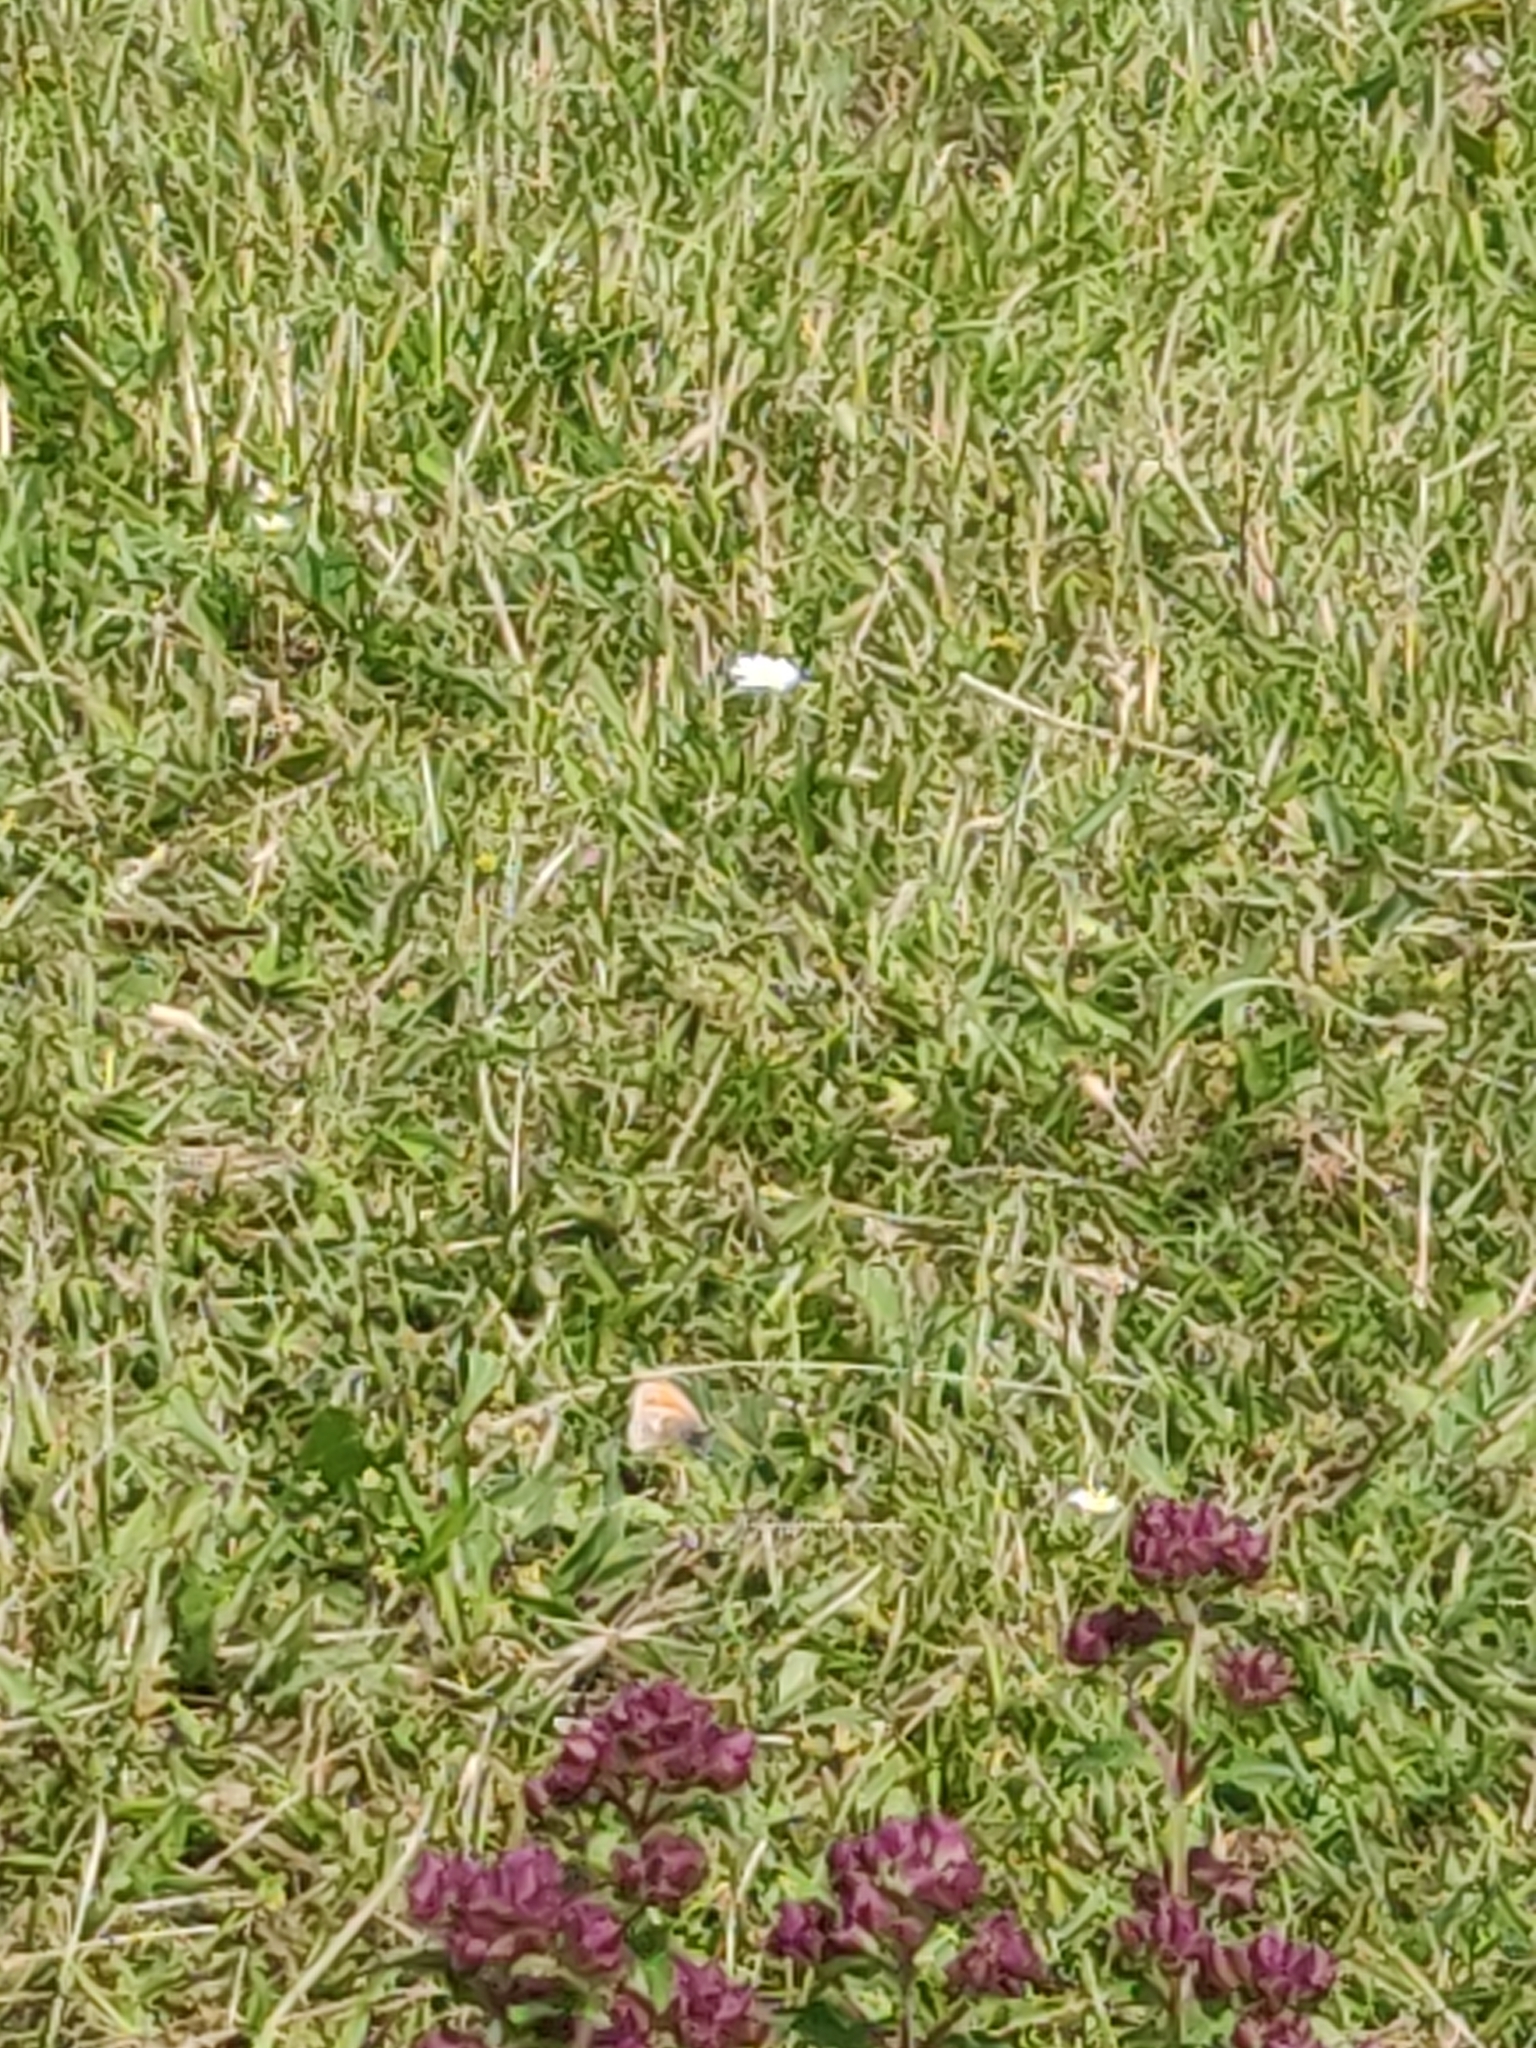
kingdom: Animalia
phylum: Arthropoda
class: Insecta
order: Lepidoptera
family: Nymphalidae
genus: Coenonympha
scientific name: Coenonympha pamphilus
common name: Small heath
